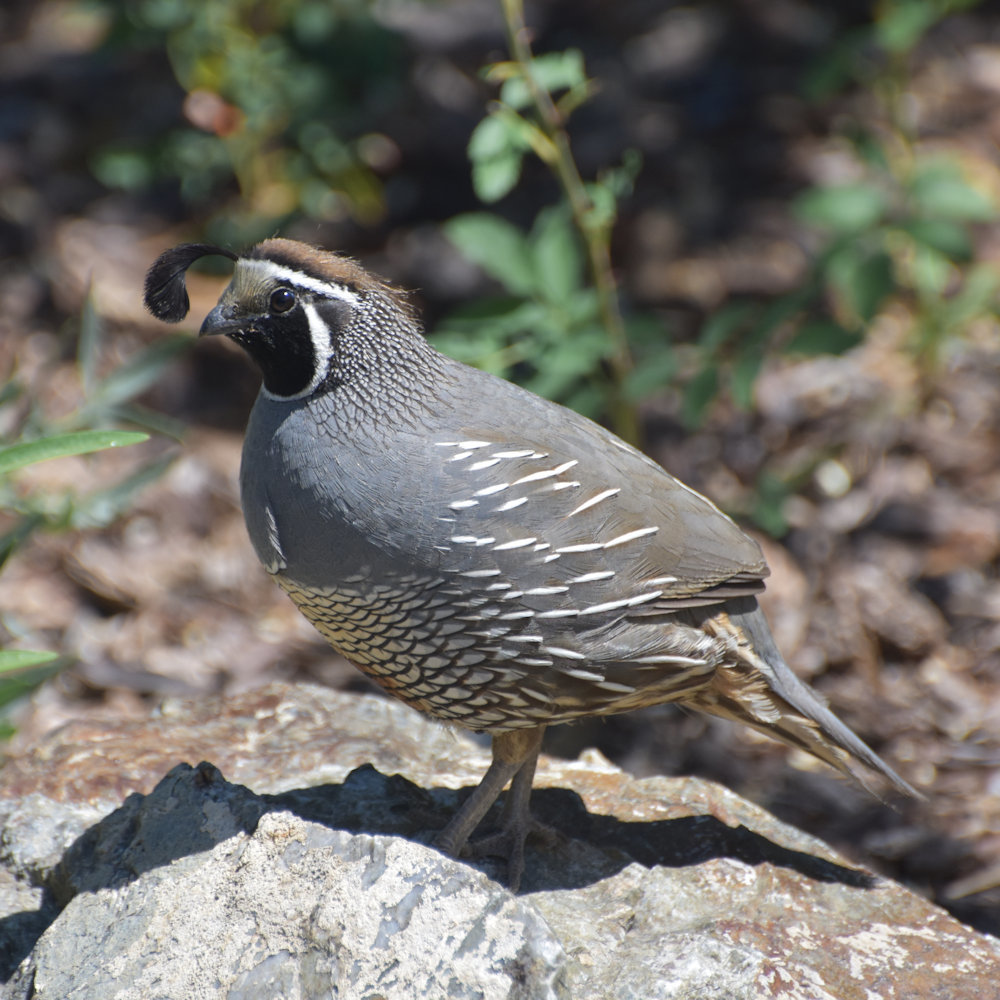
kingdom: Animalia
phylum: Chordata
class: Aves
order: Galliformes
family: Odontophoridae
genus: Callipepla
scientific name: Callipepla californica
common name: California quail
